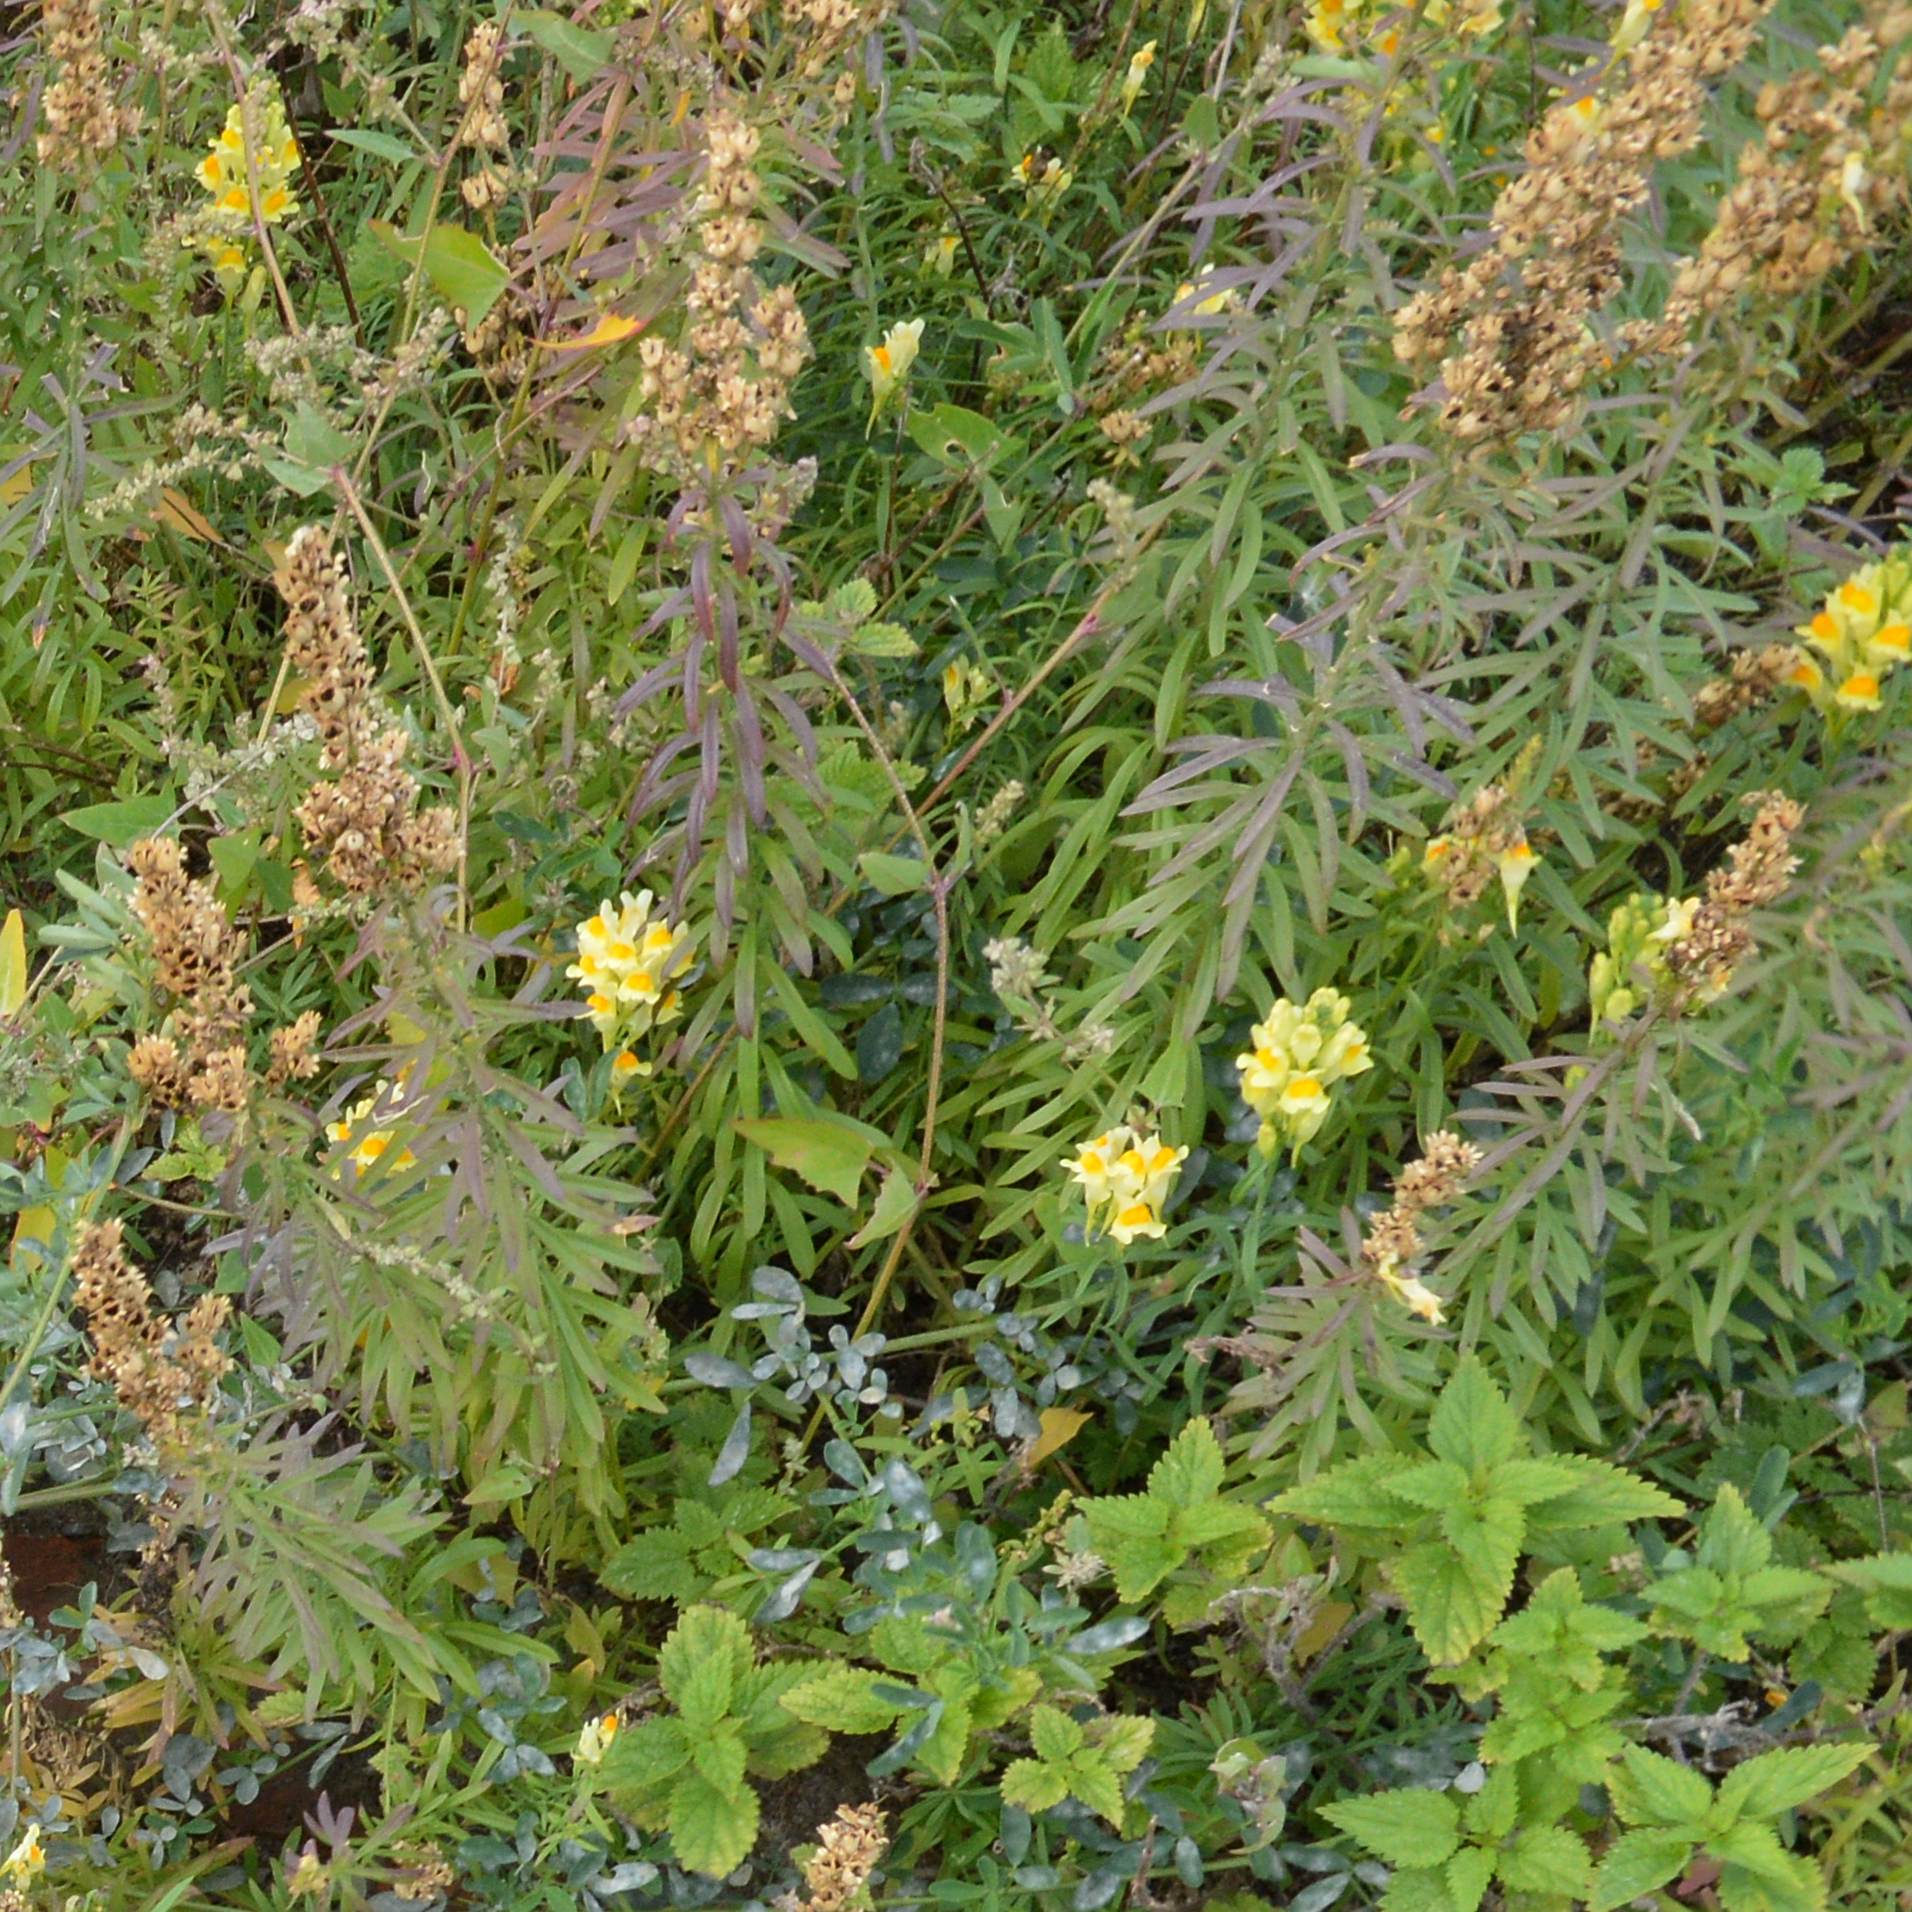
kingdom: Plantae
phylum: Tracheophyta
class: Magnoliopsida
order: Lamiales
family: Plantaginaceae
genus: Linaria
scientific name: Linaria vulgaris
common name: Butter and eggs
